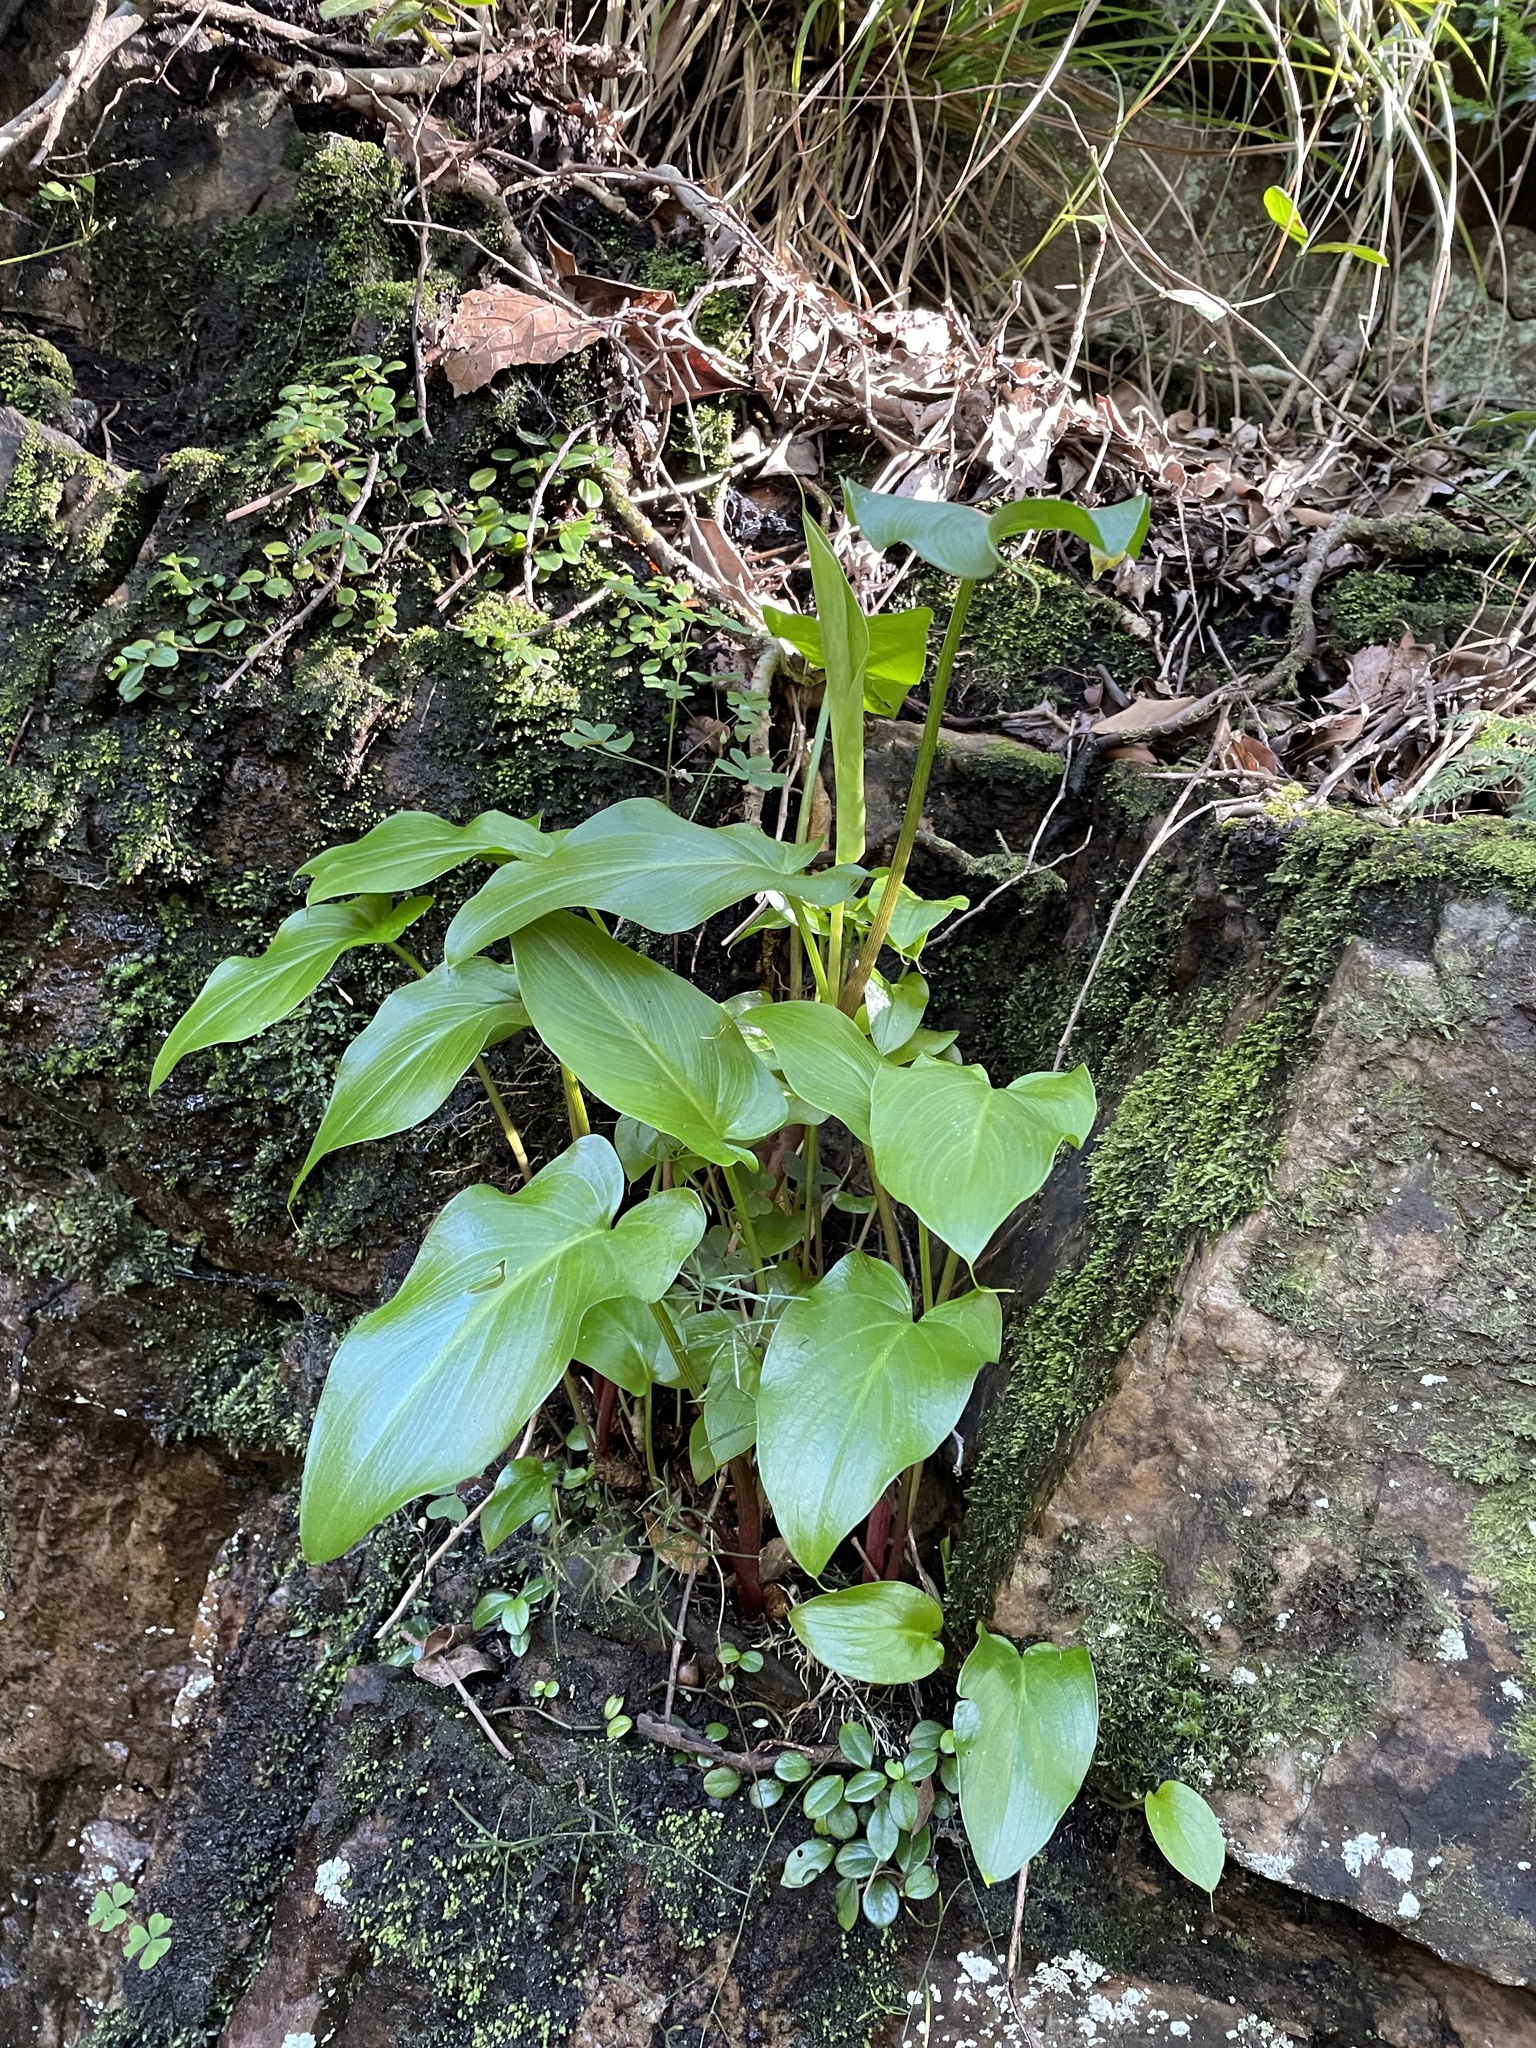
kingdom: Plantae
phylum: Tracheophyta
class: Liliopsida
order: Alismatales
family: Araceae
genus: Zantedeschia
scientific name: Zantedeschia aethiopica
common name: Altar-lily
